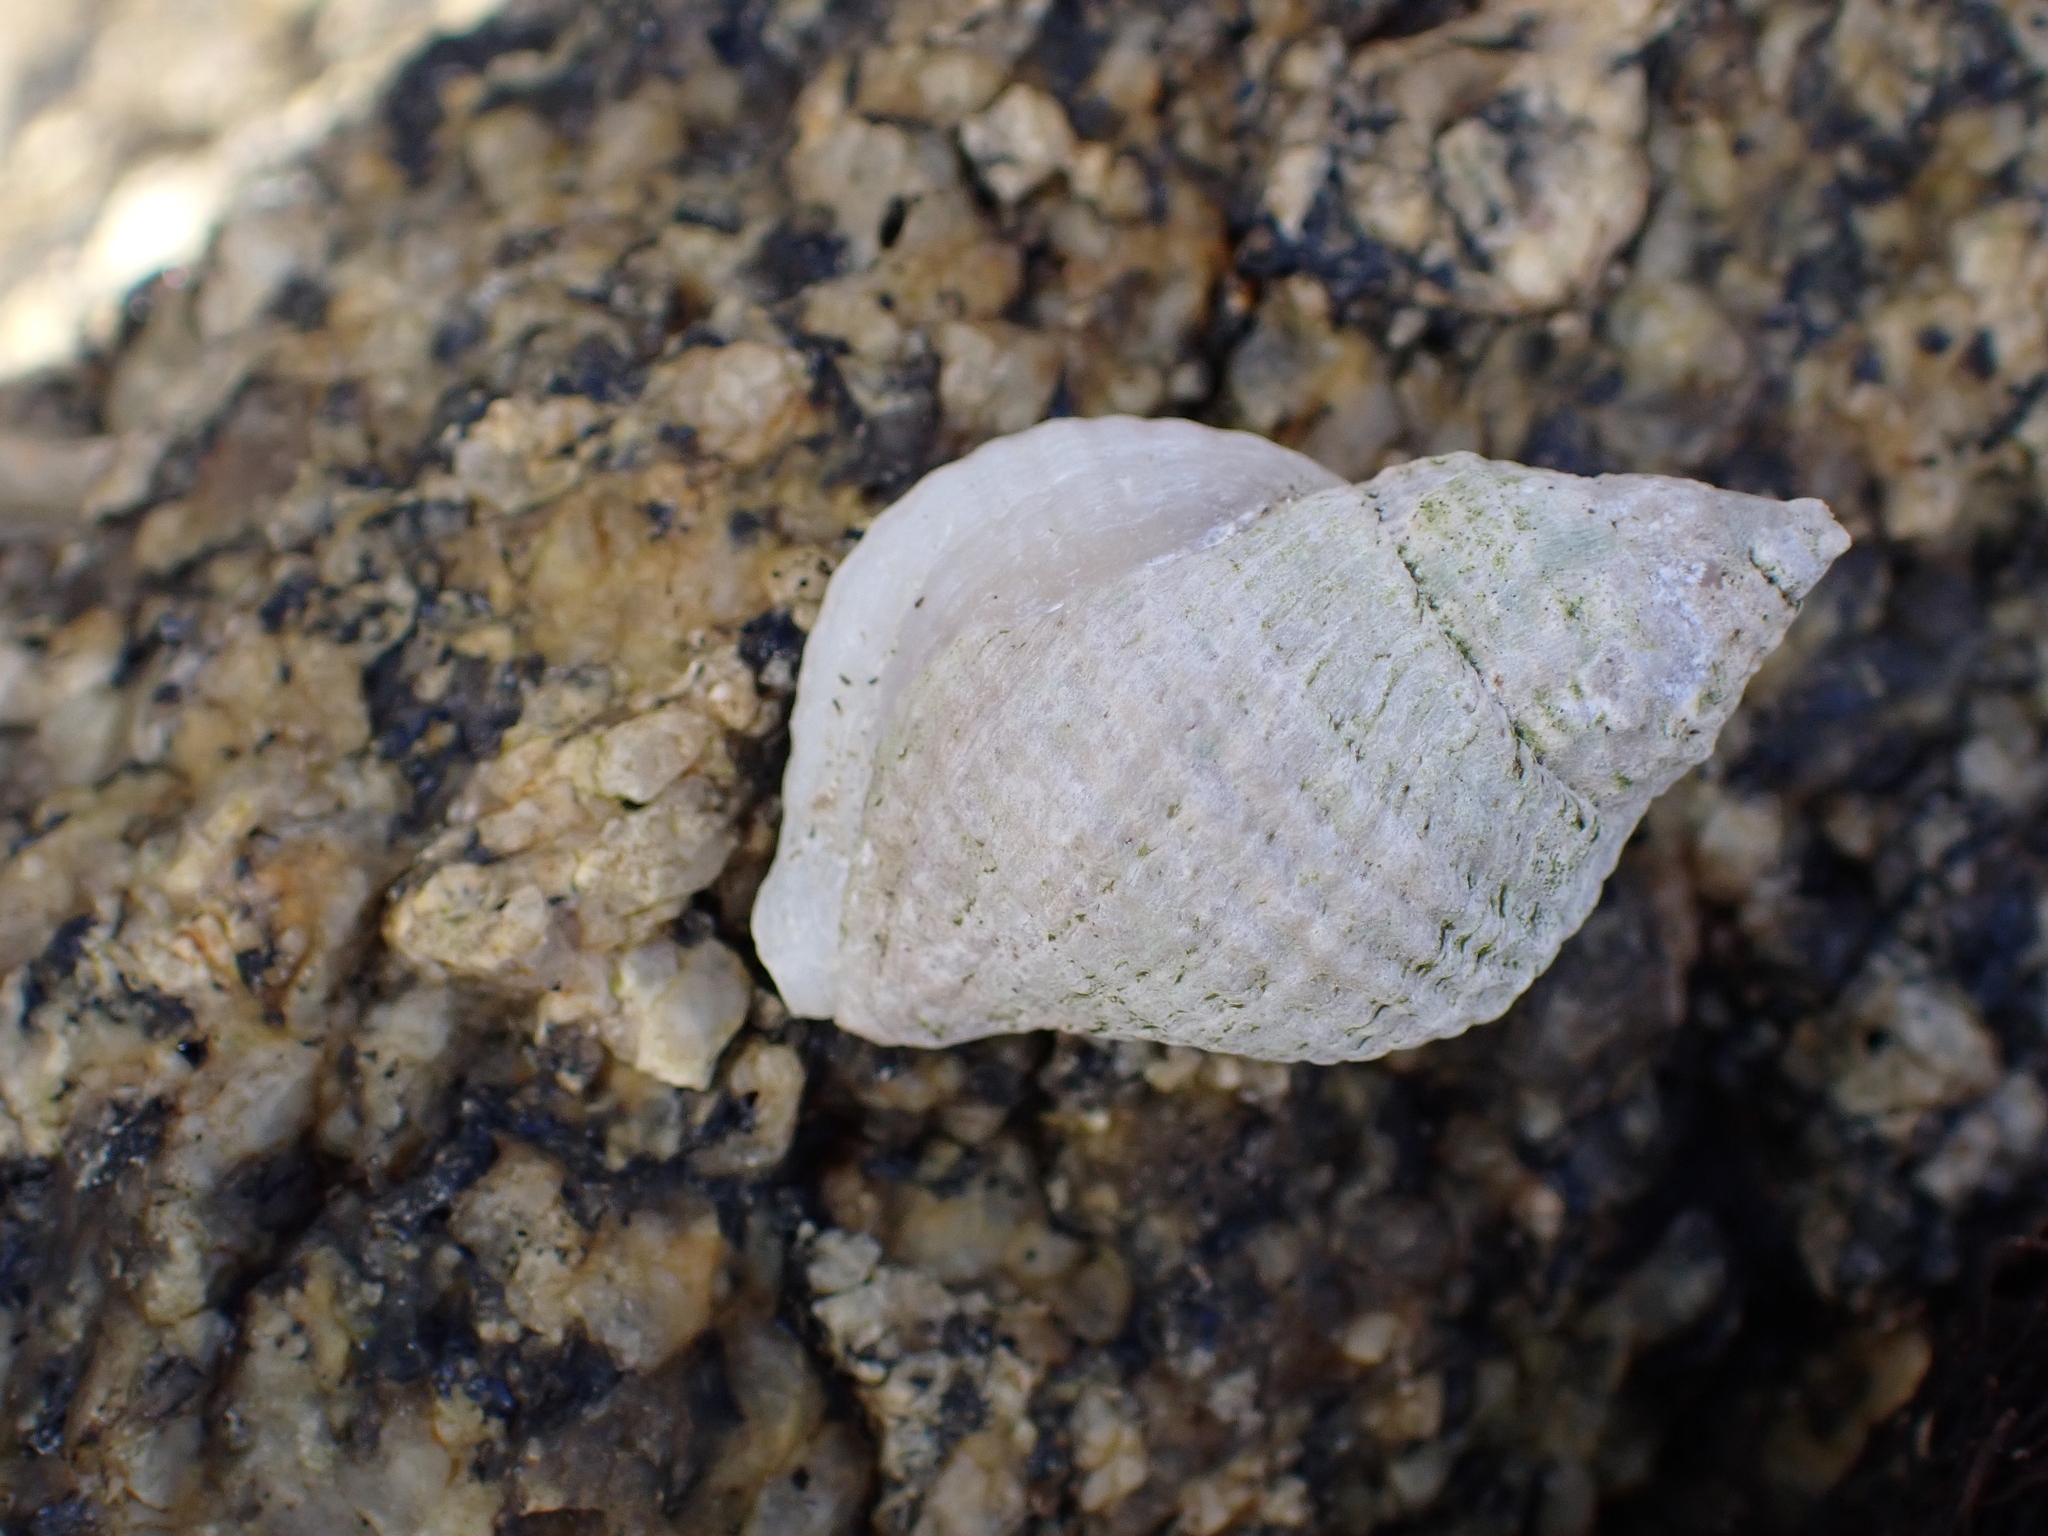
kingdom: Animalia
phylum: Mollusca
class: Gastropoda
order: Neogastropoda
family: Muricidae
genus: Nucella
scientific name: Nucella lapillus
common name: Dog whelk
